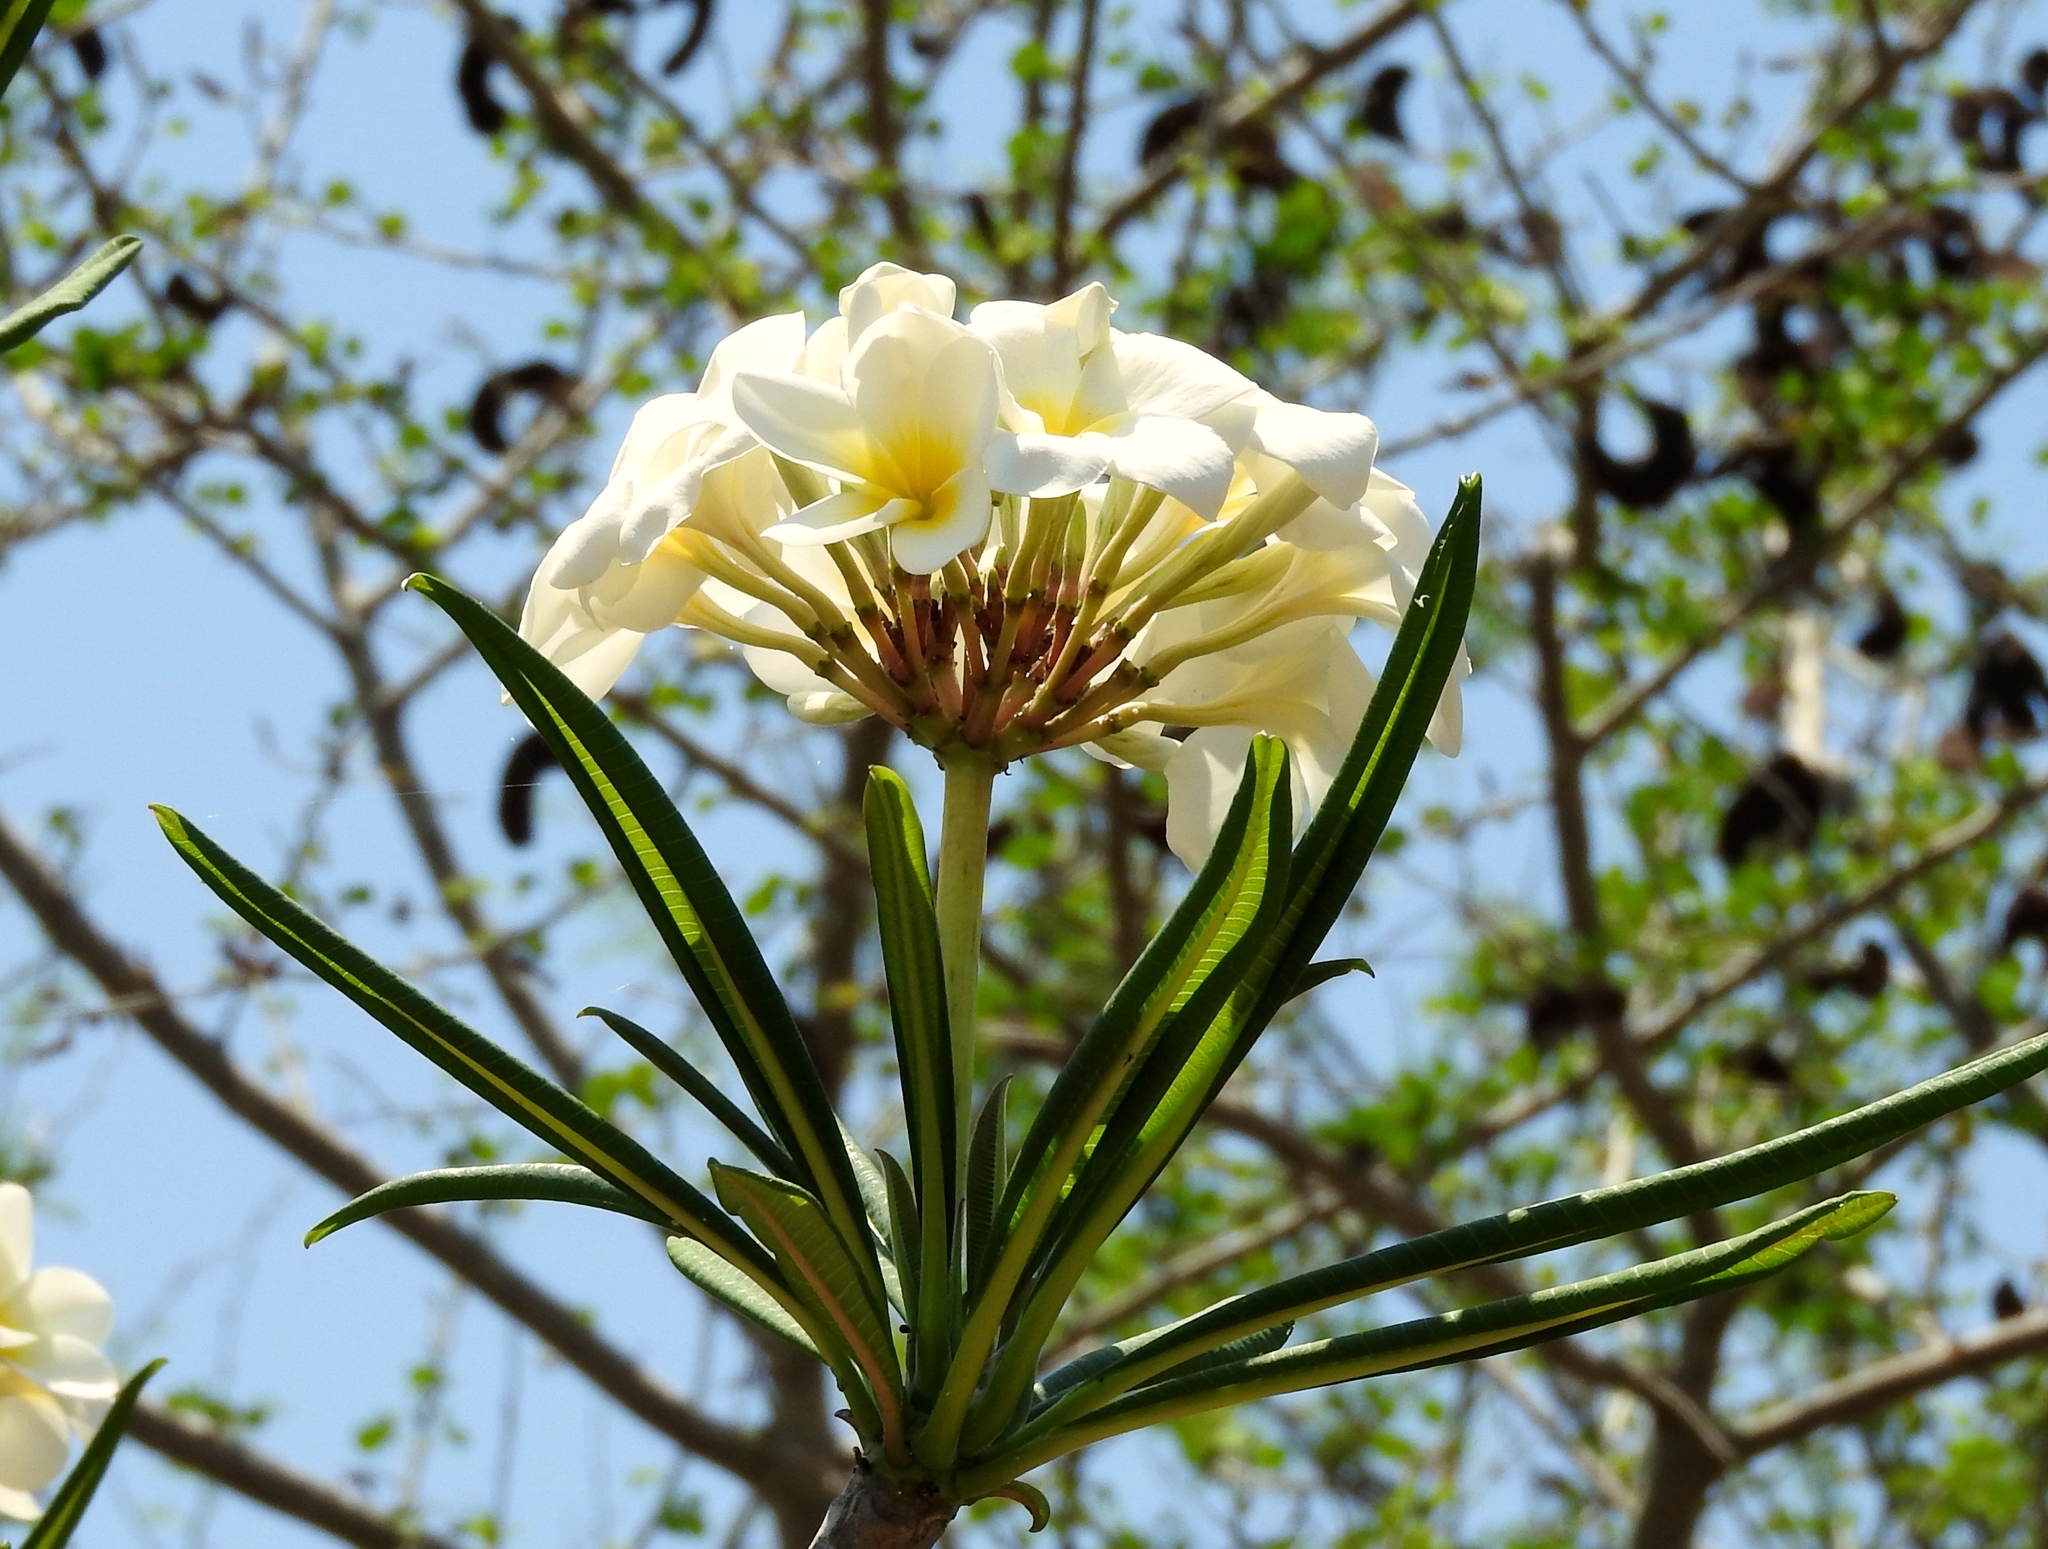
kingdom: Plantae
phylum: Tracheophyta
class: Magnoliopsida
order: Gentianales
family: Apocynaceae
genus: Plumeria
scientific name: Plumeria rubra
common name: Pagoda-tree
